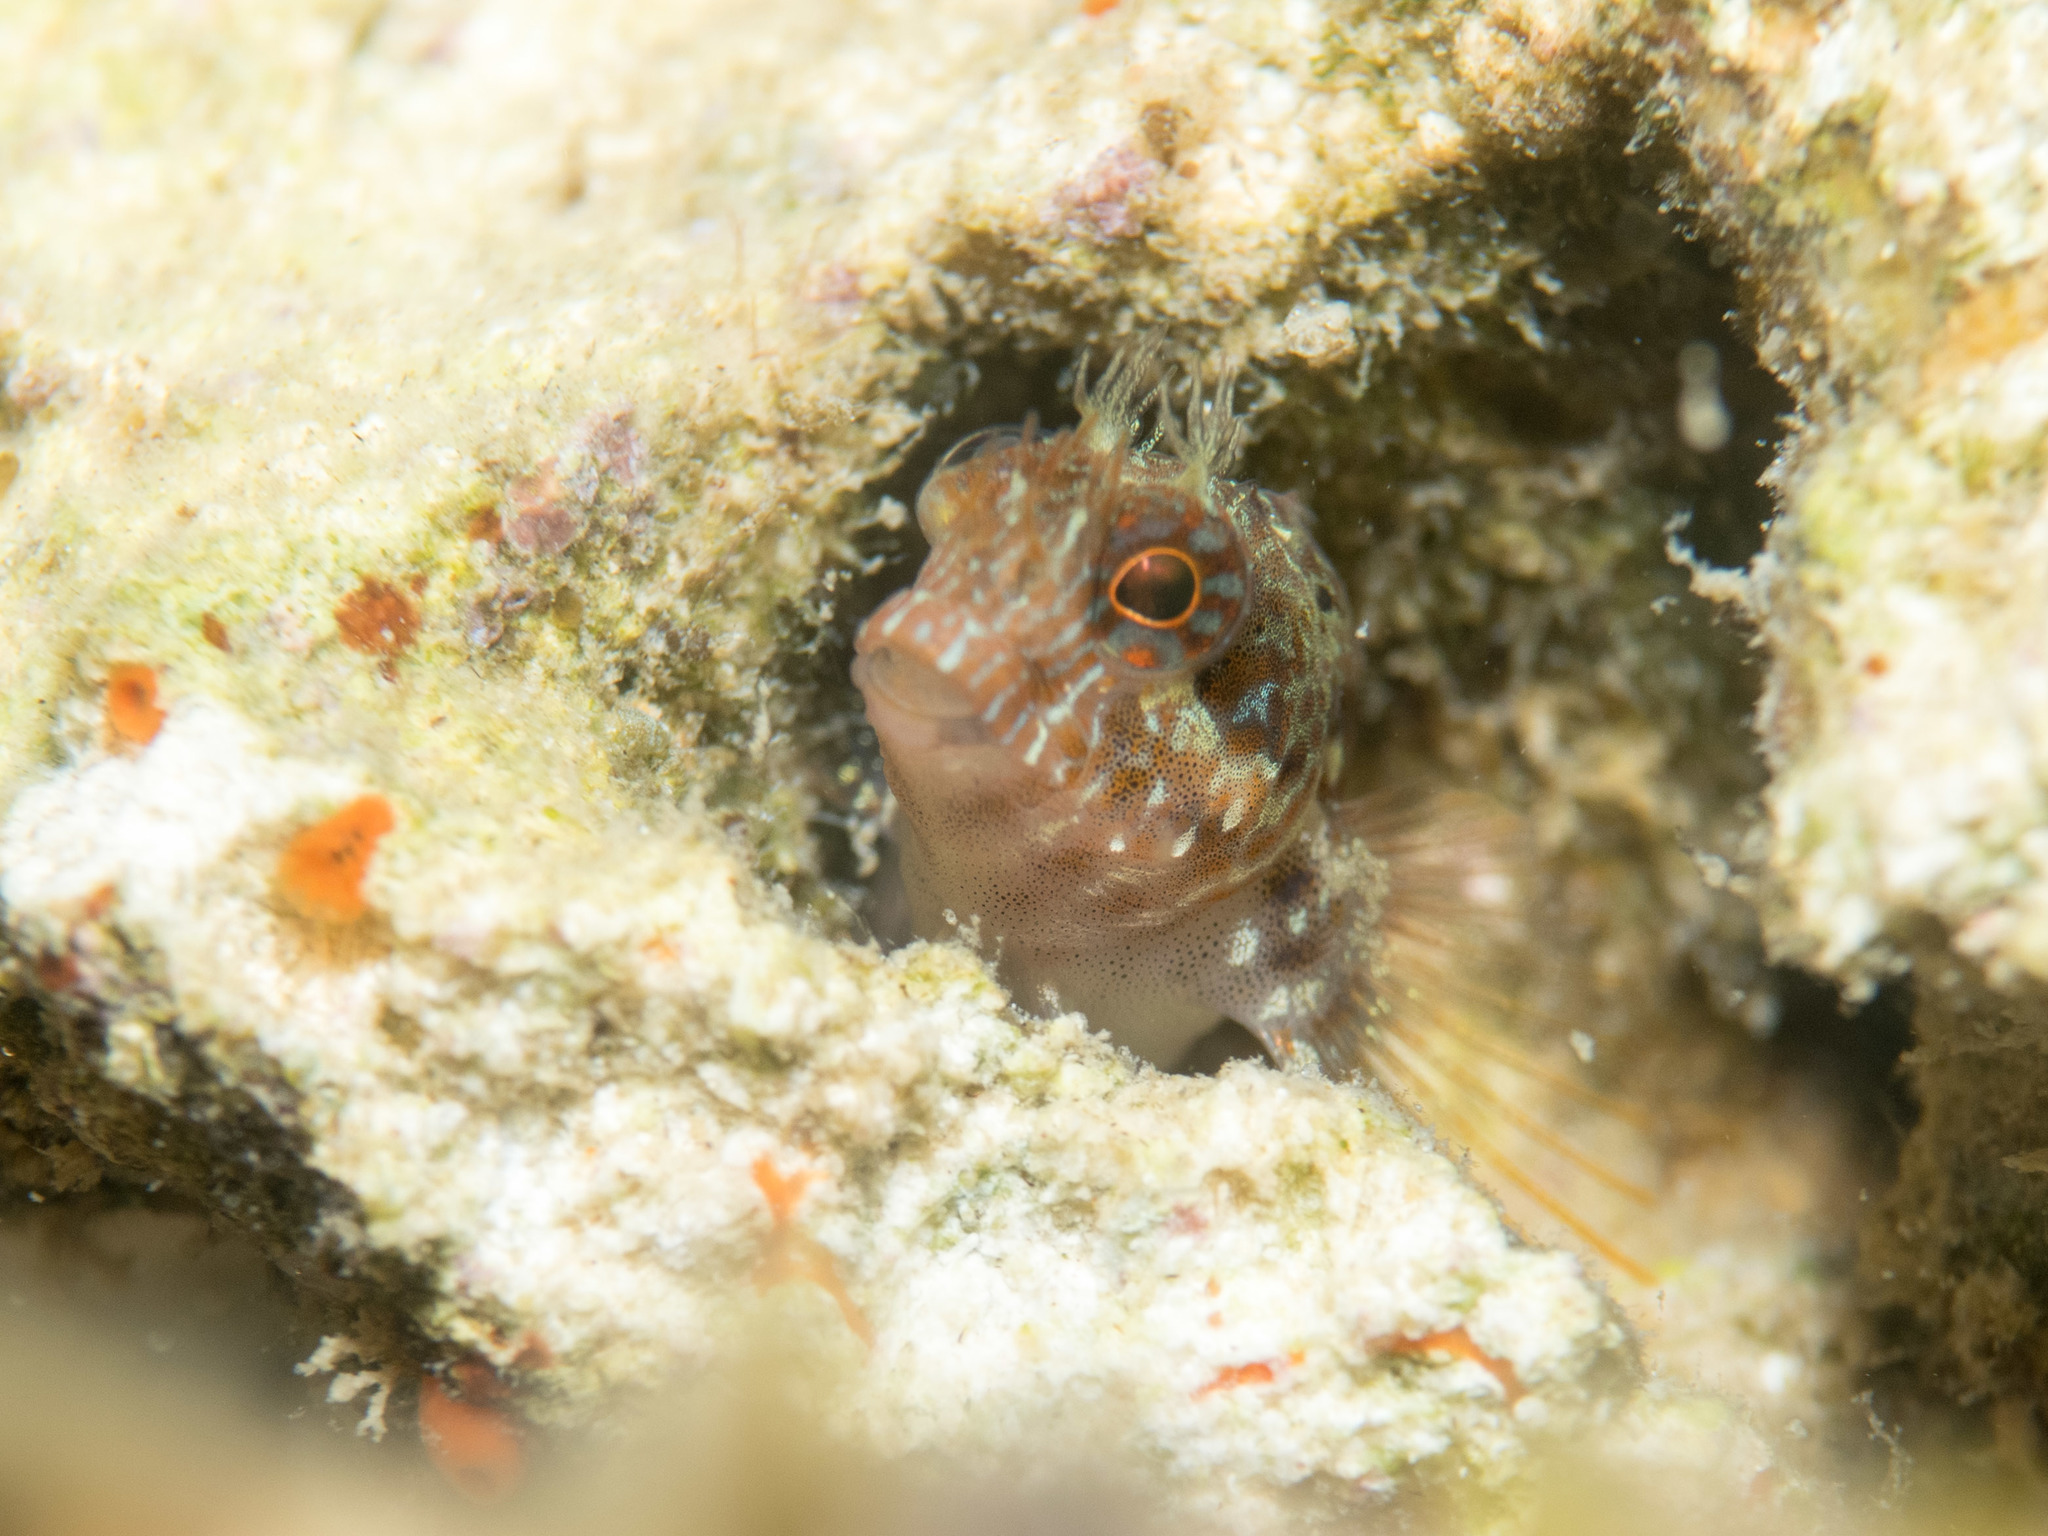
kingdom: Animalia
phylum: Chordata
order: Perciformes
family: Blenniidae
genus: Parablennius
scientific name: Parablennius zvonimiri
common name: Red blenny
